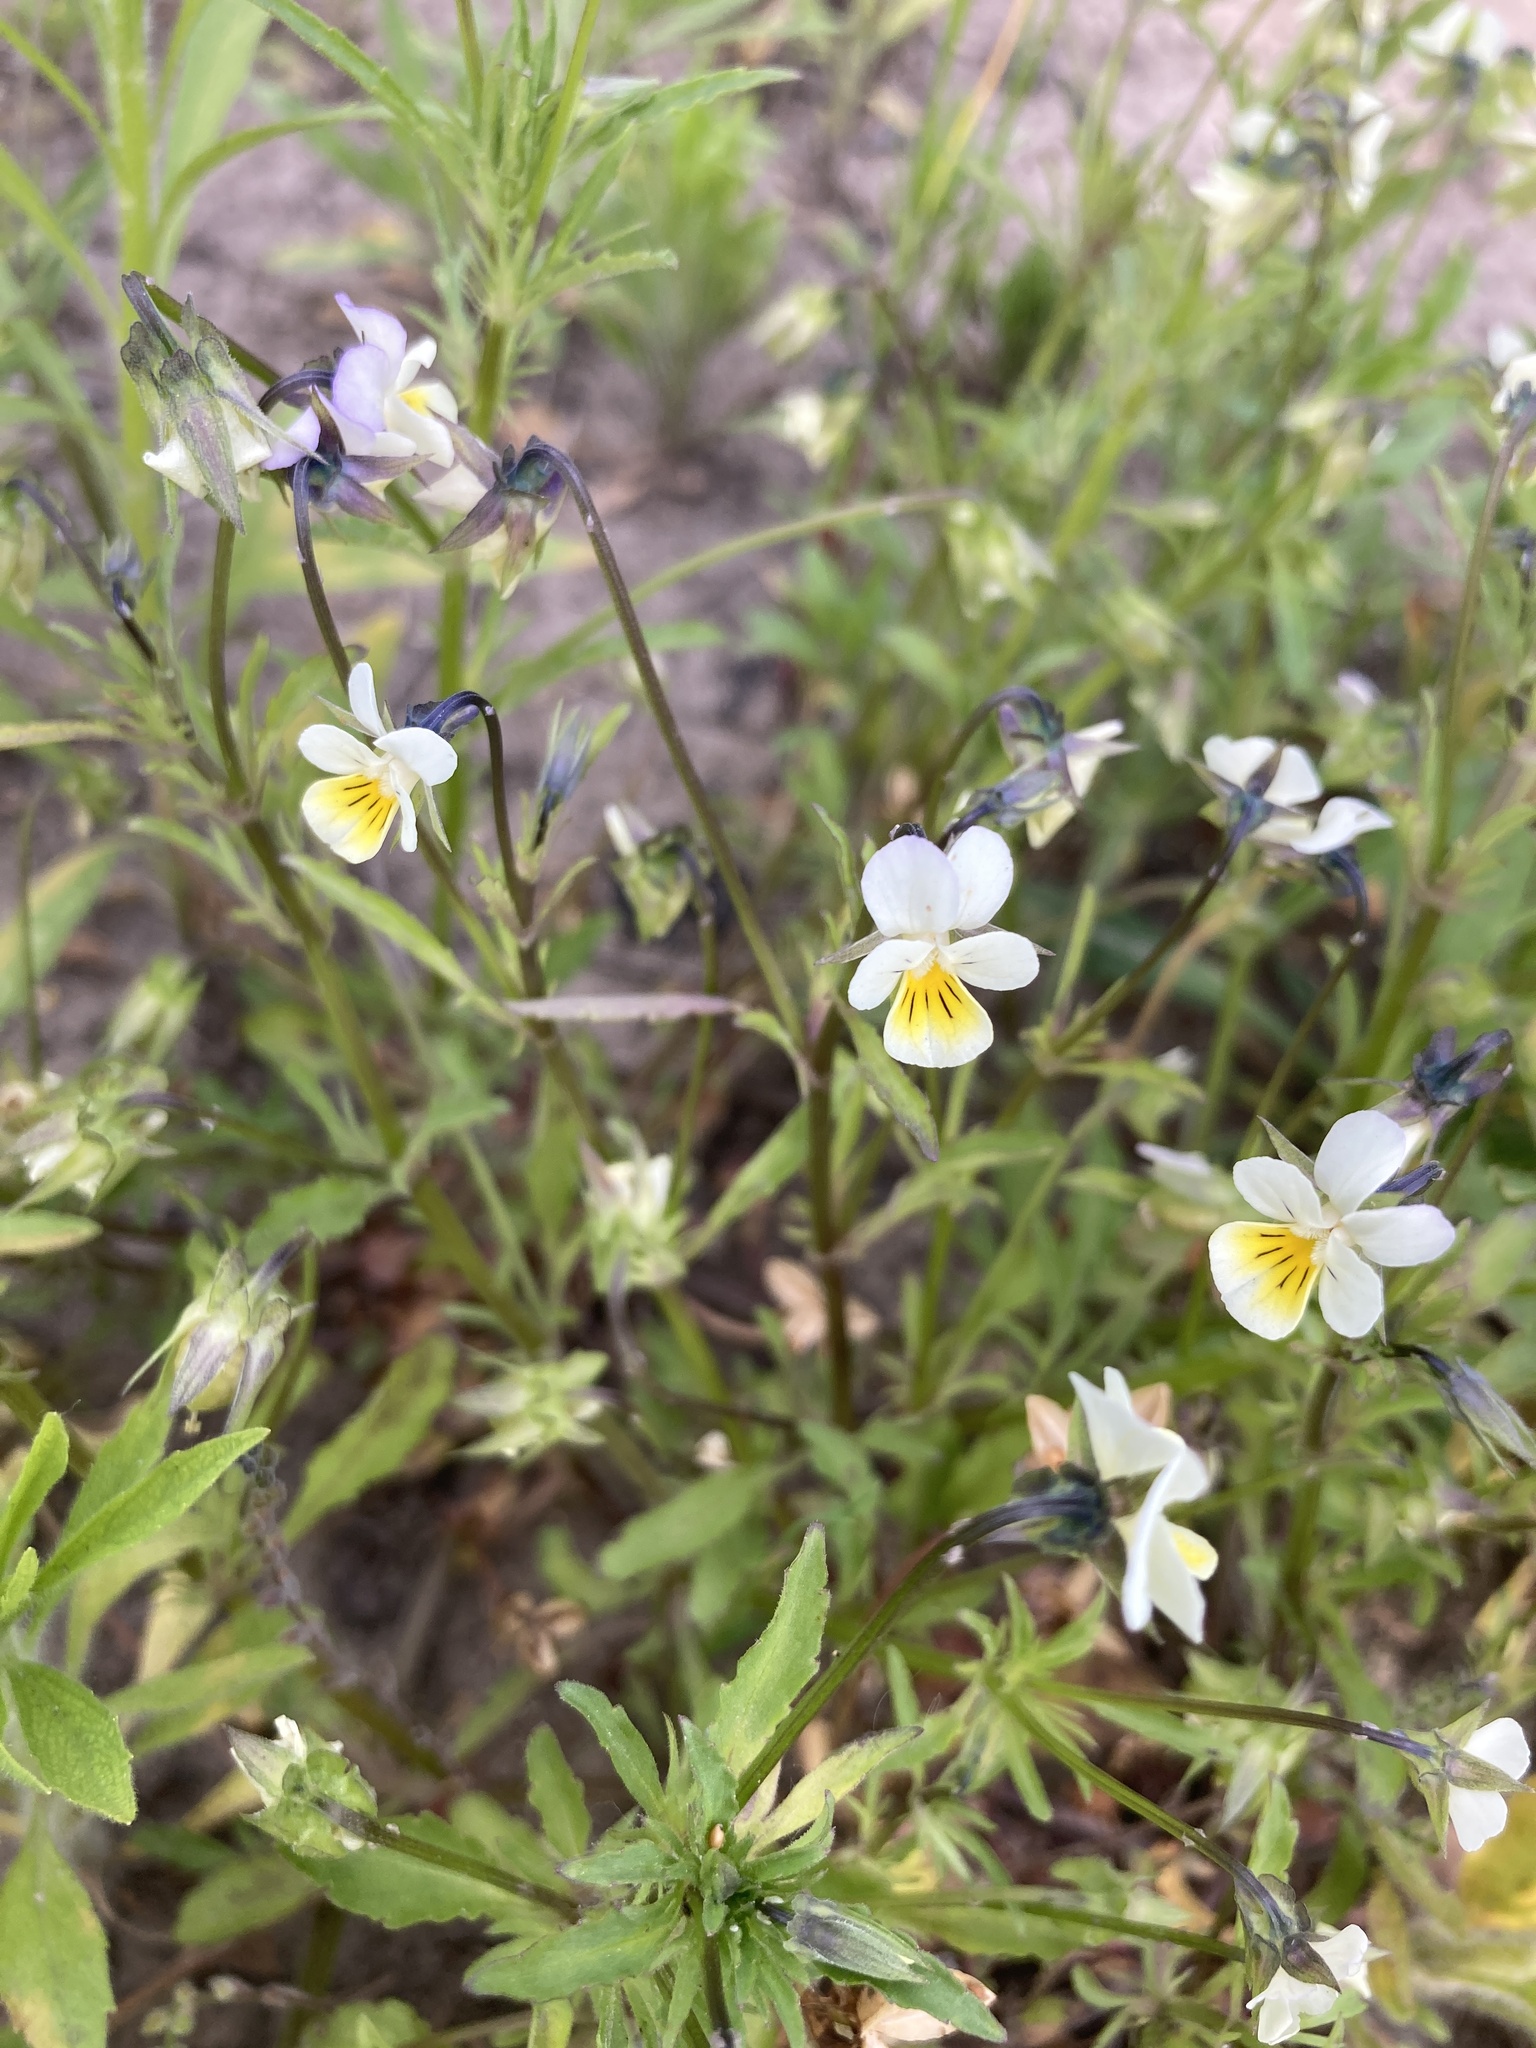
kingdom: Plantae
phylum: Tracheophyta
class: Magnoliopsida
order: Malpighiales
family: Violaceae
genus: Viola
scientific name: Viola arvensis
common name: Field pansy
